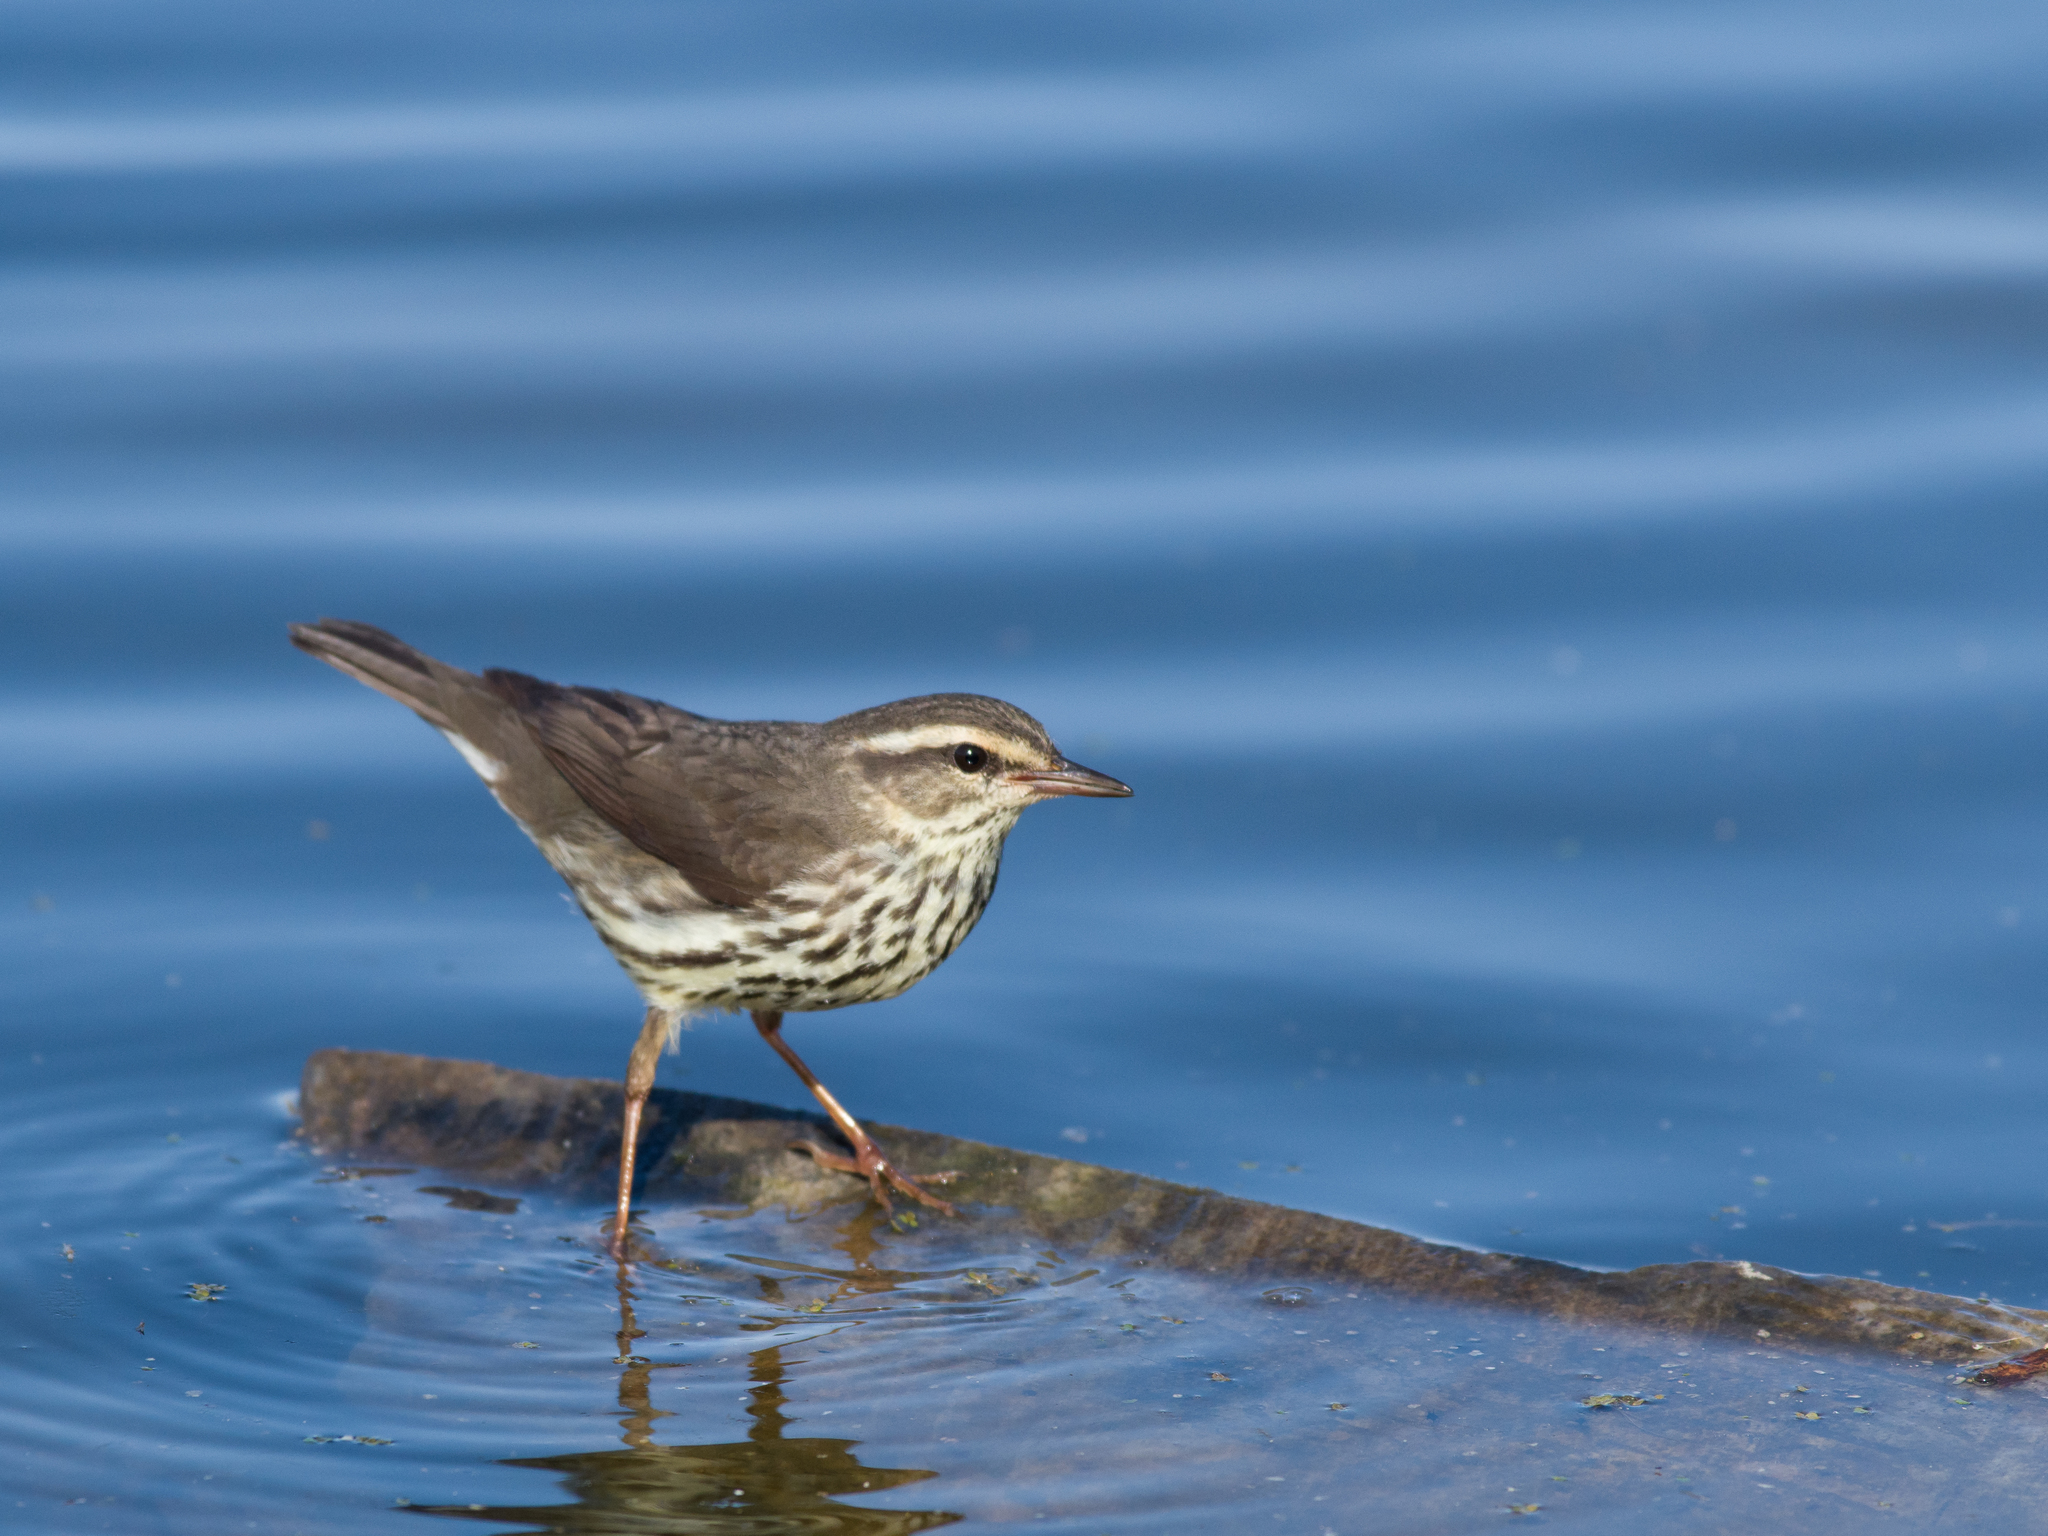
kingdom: Animalia
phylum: Chordata
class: Aves
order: Passeriformes
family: Parulidae
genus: Parkesia
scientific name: Parkesia noveboracensis
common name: Northern waterthrush
